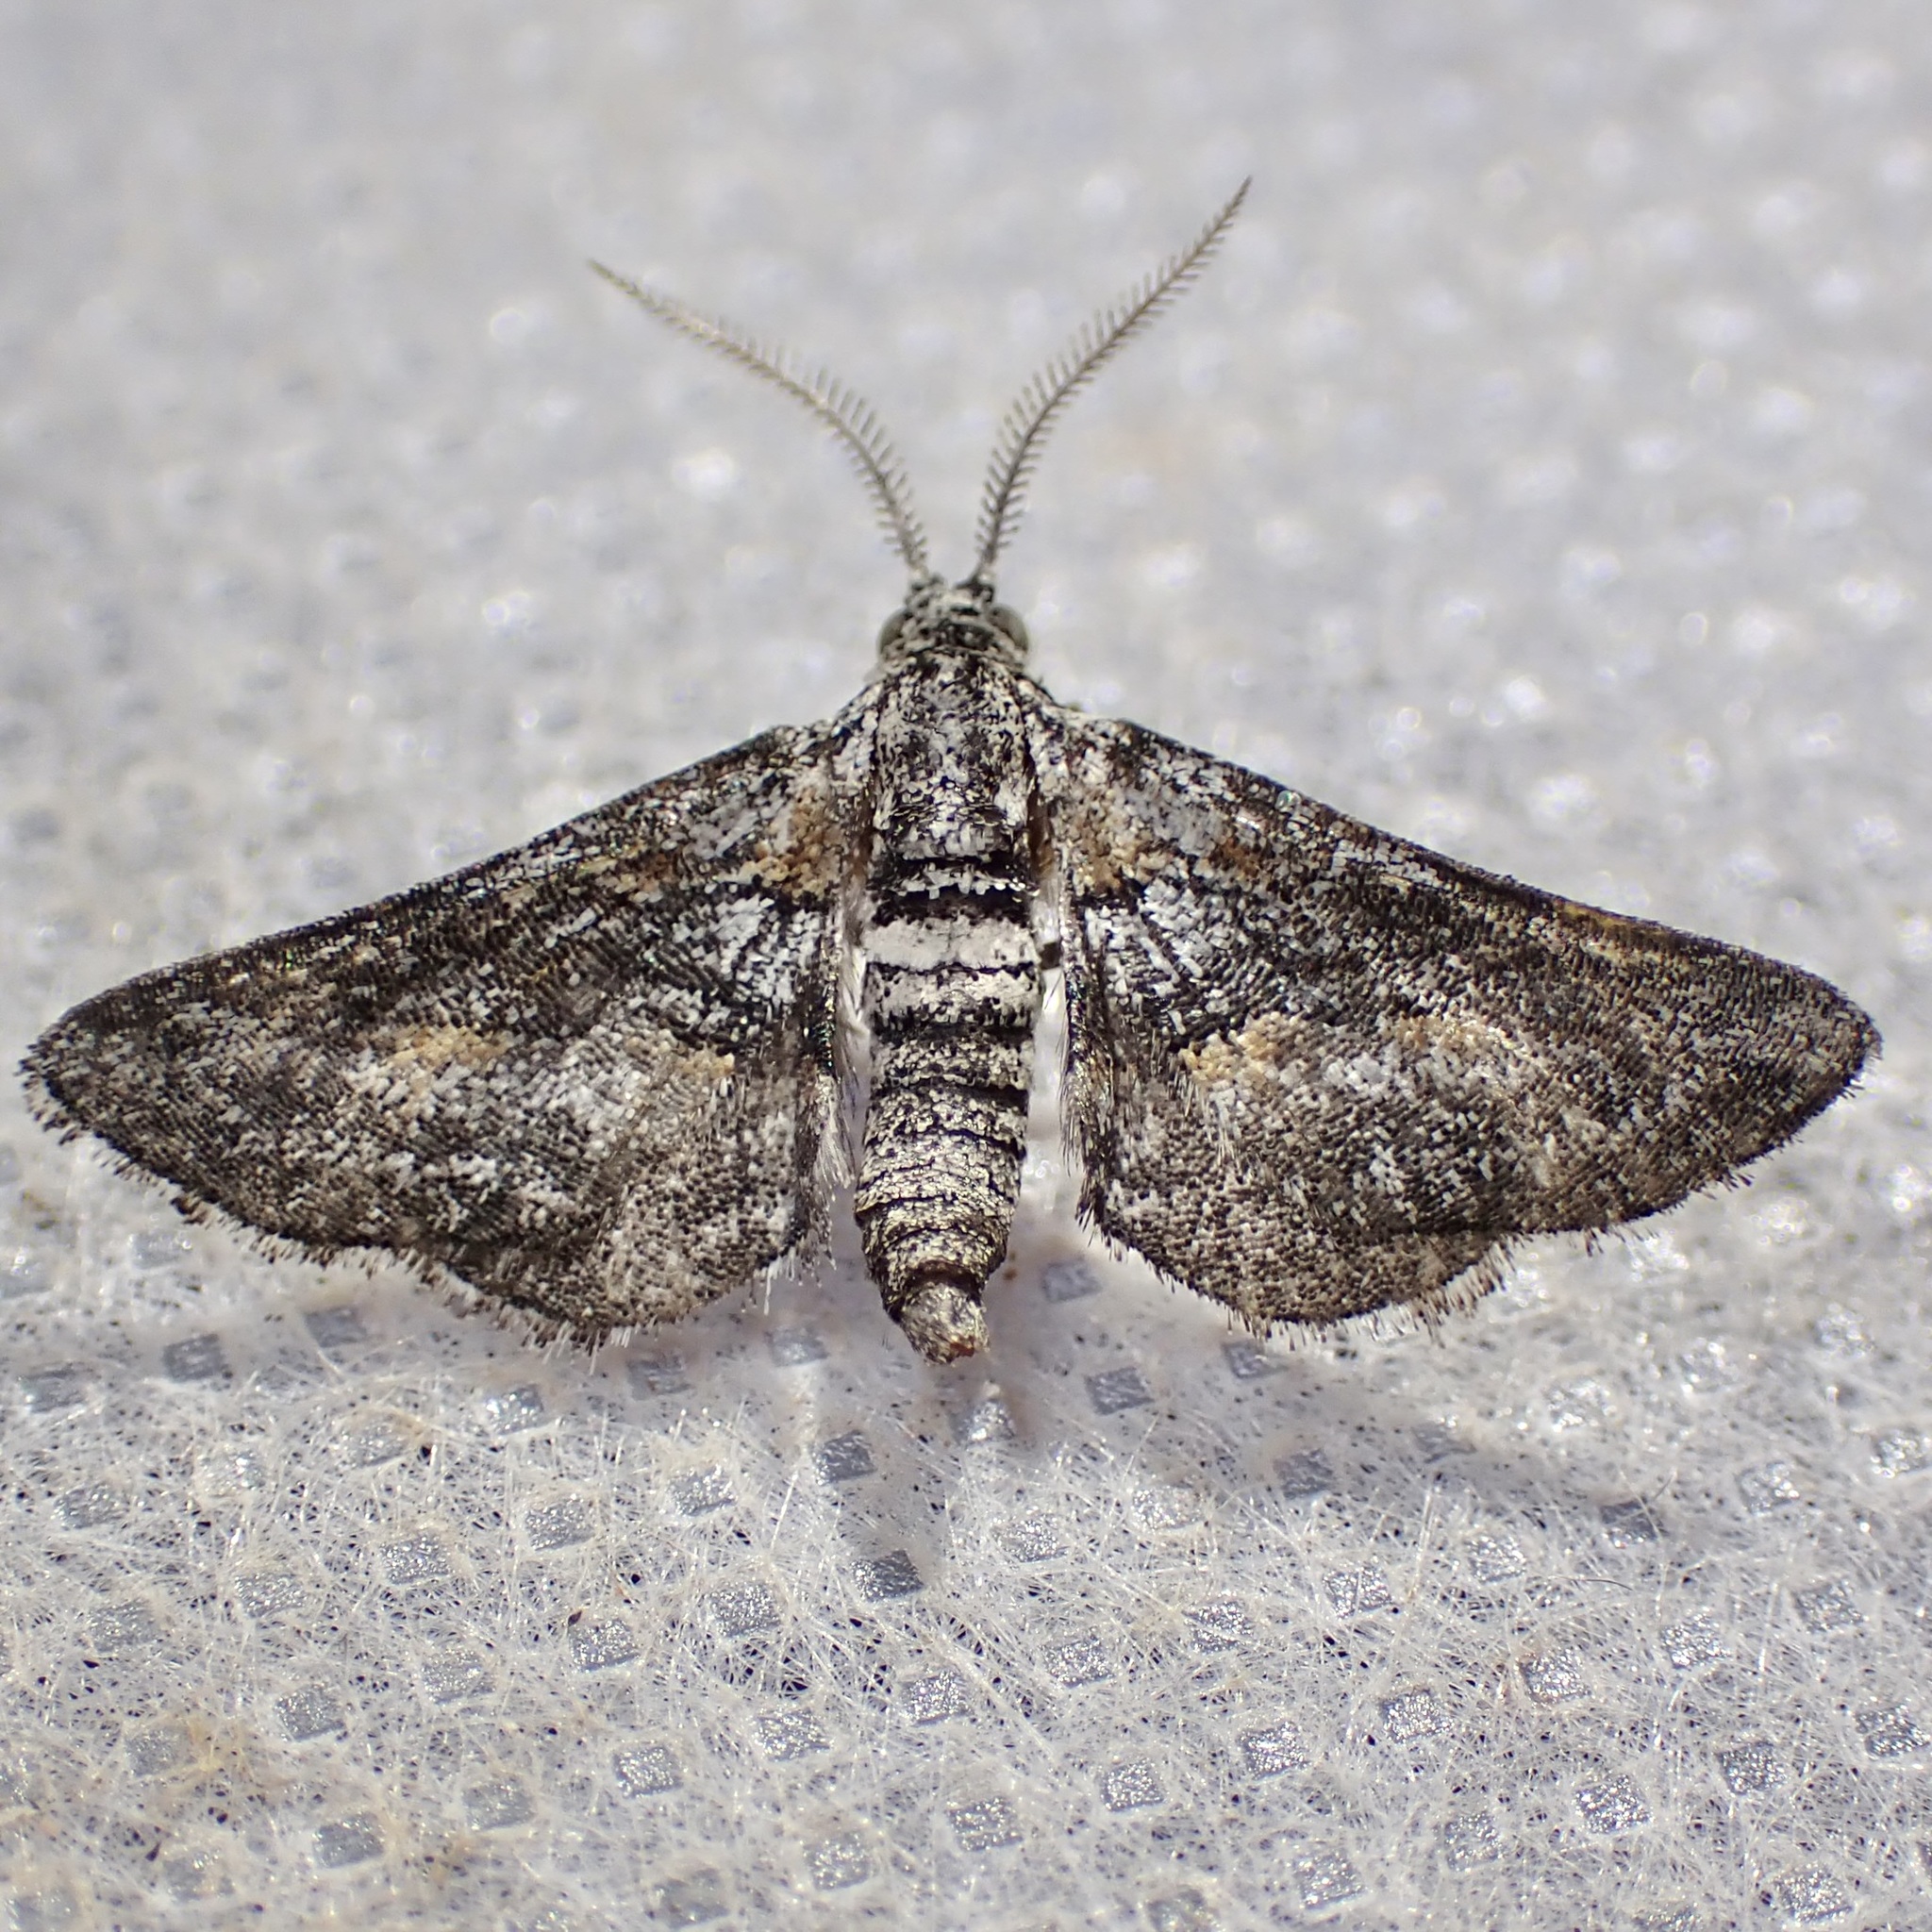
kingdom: Animalia
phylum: Arthropoda
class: Insecta
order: Lepidoptera
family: Geometridae
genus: Eubarnesia
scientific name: Eubarnesia ritaria
